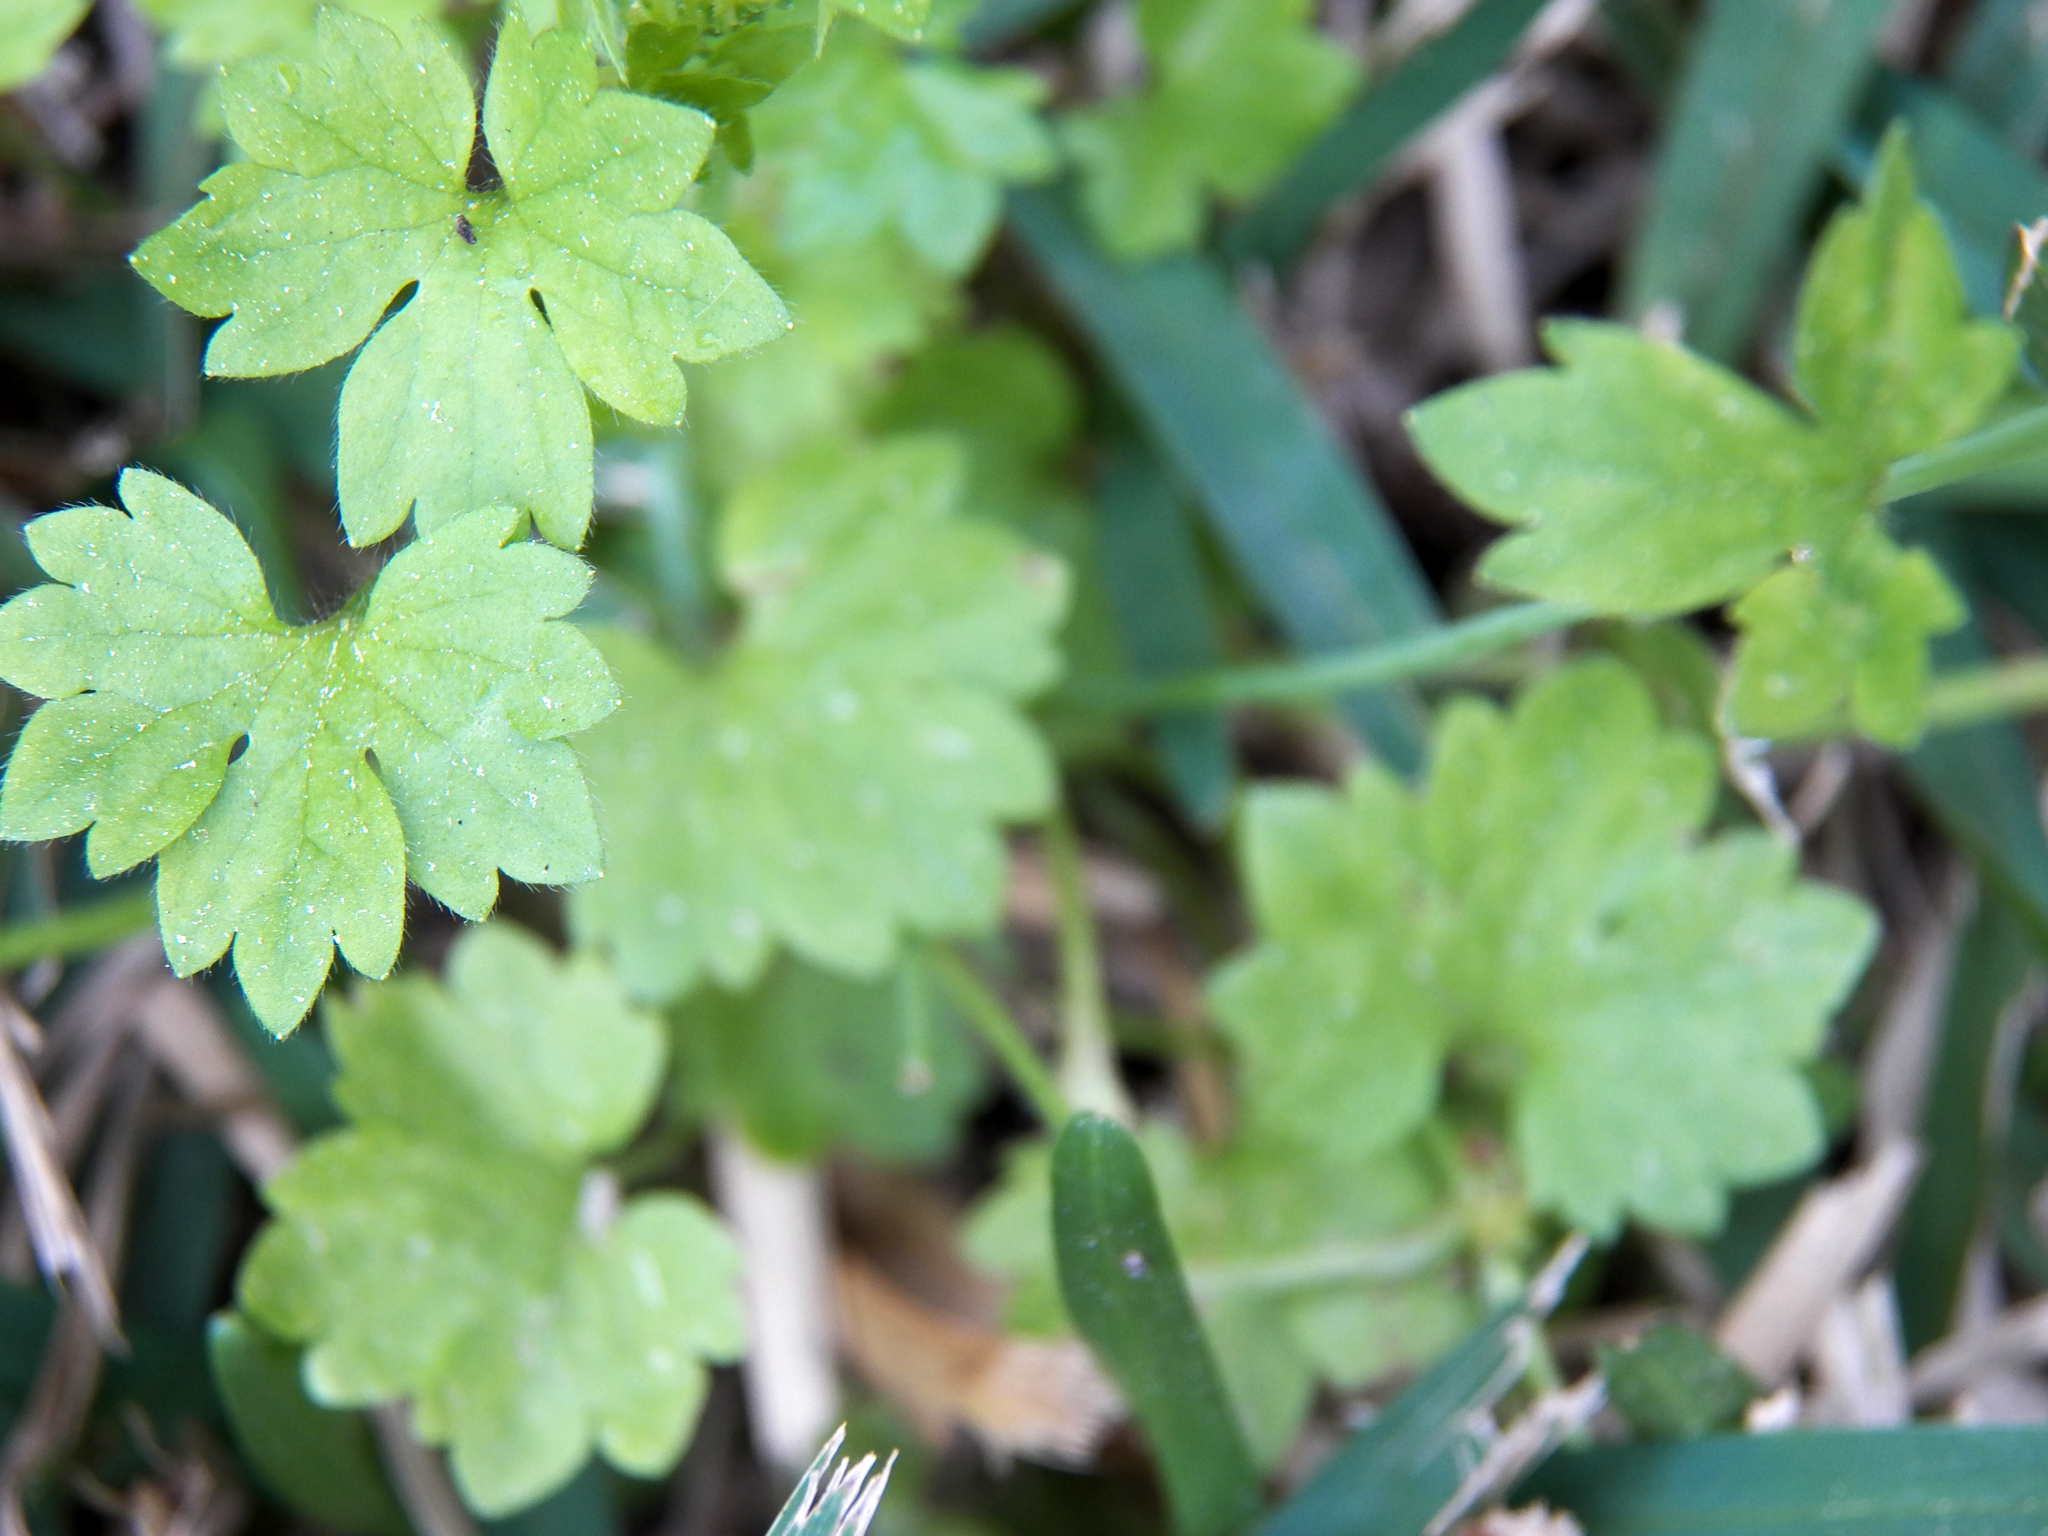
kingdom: Plantae
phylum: Tracheophyta
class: Magnoliopsida
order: Apiales
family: Apiaceae
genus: Bowlesia
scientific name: Bowlesia incana
